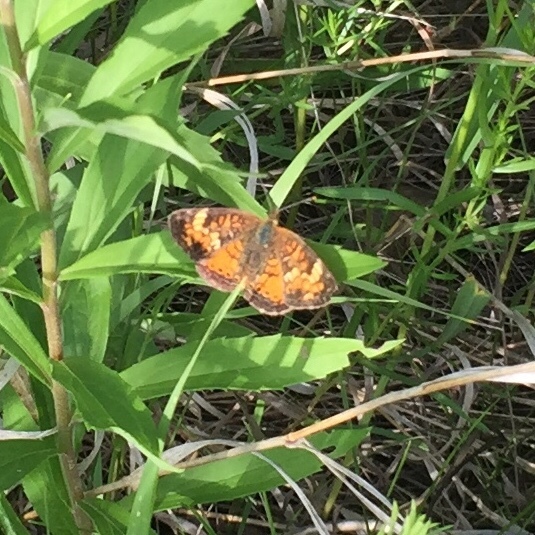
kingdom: Animalia
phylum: Arthropoda
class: Insecta
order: Lepidoptera
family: Nymphalidae
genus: Phyciodes
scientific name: Phyciodes tharos
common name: Pearl crescent
